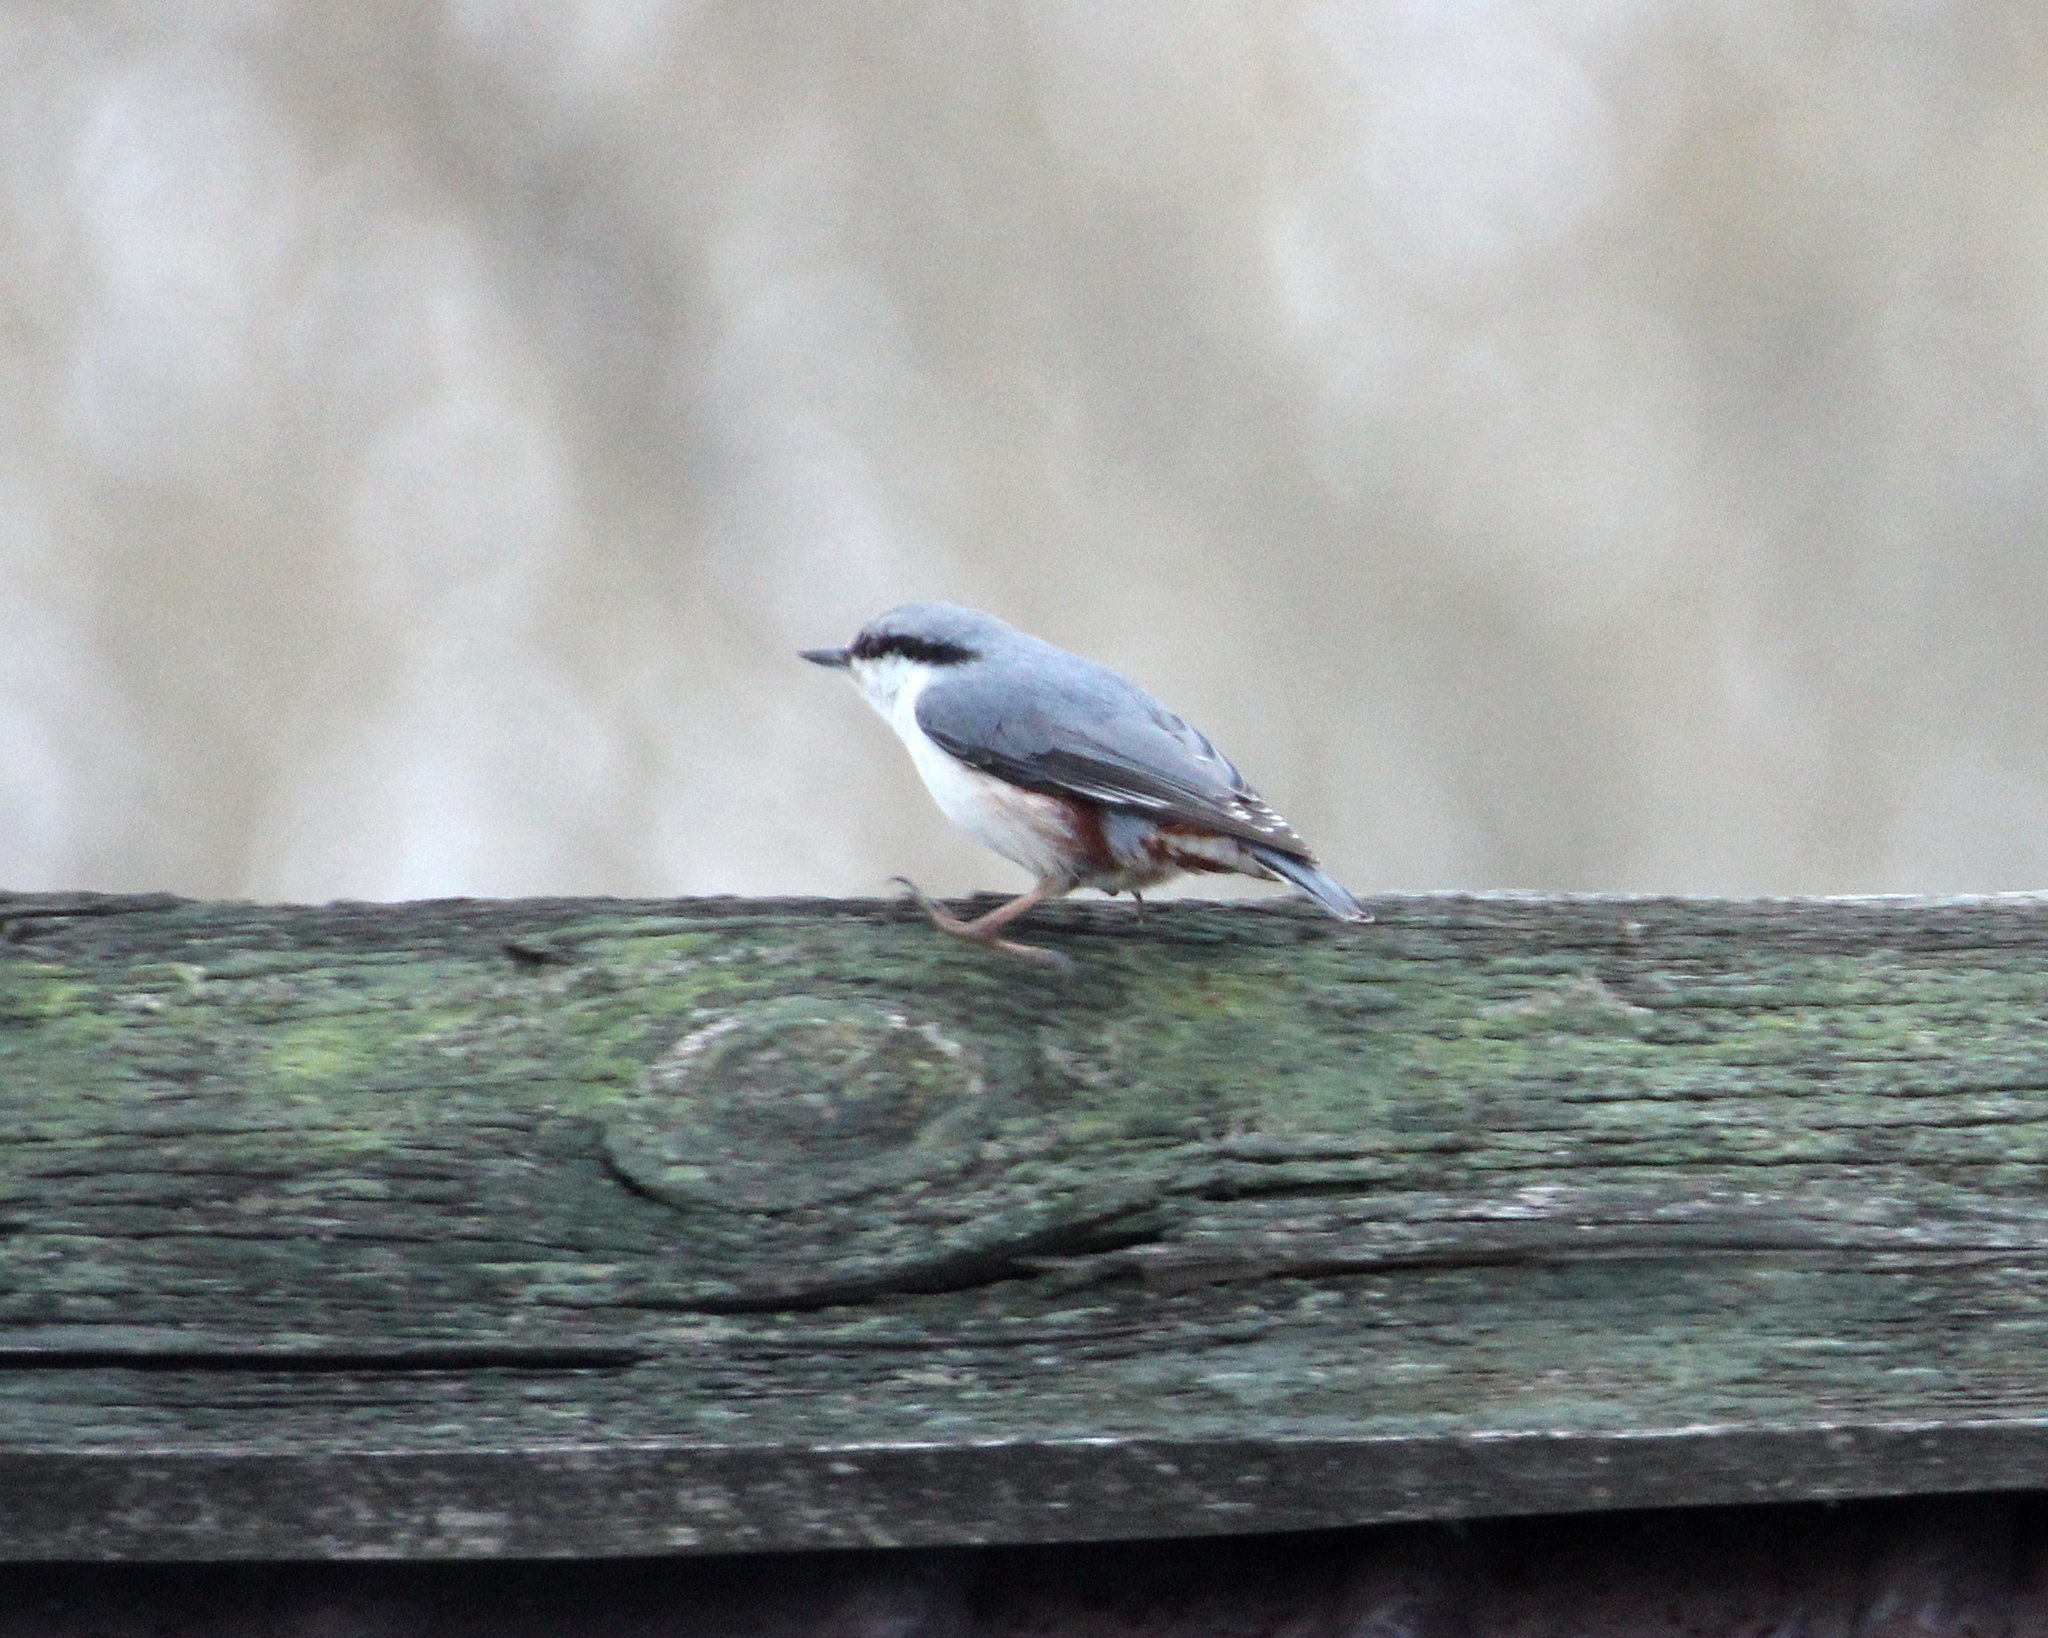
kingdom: Animalia
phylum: Chordata
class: Aves
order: Passeriformes
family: Sittidae
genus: Sitta
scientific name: Sitta europaea
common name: Eurasian nuthatch
